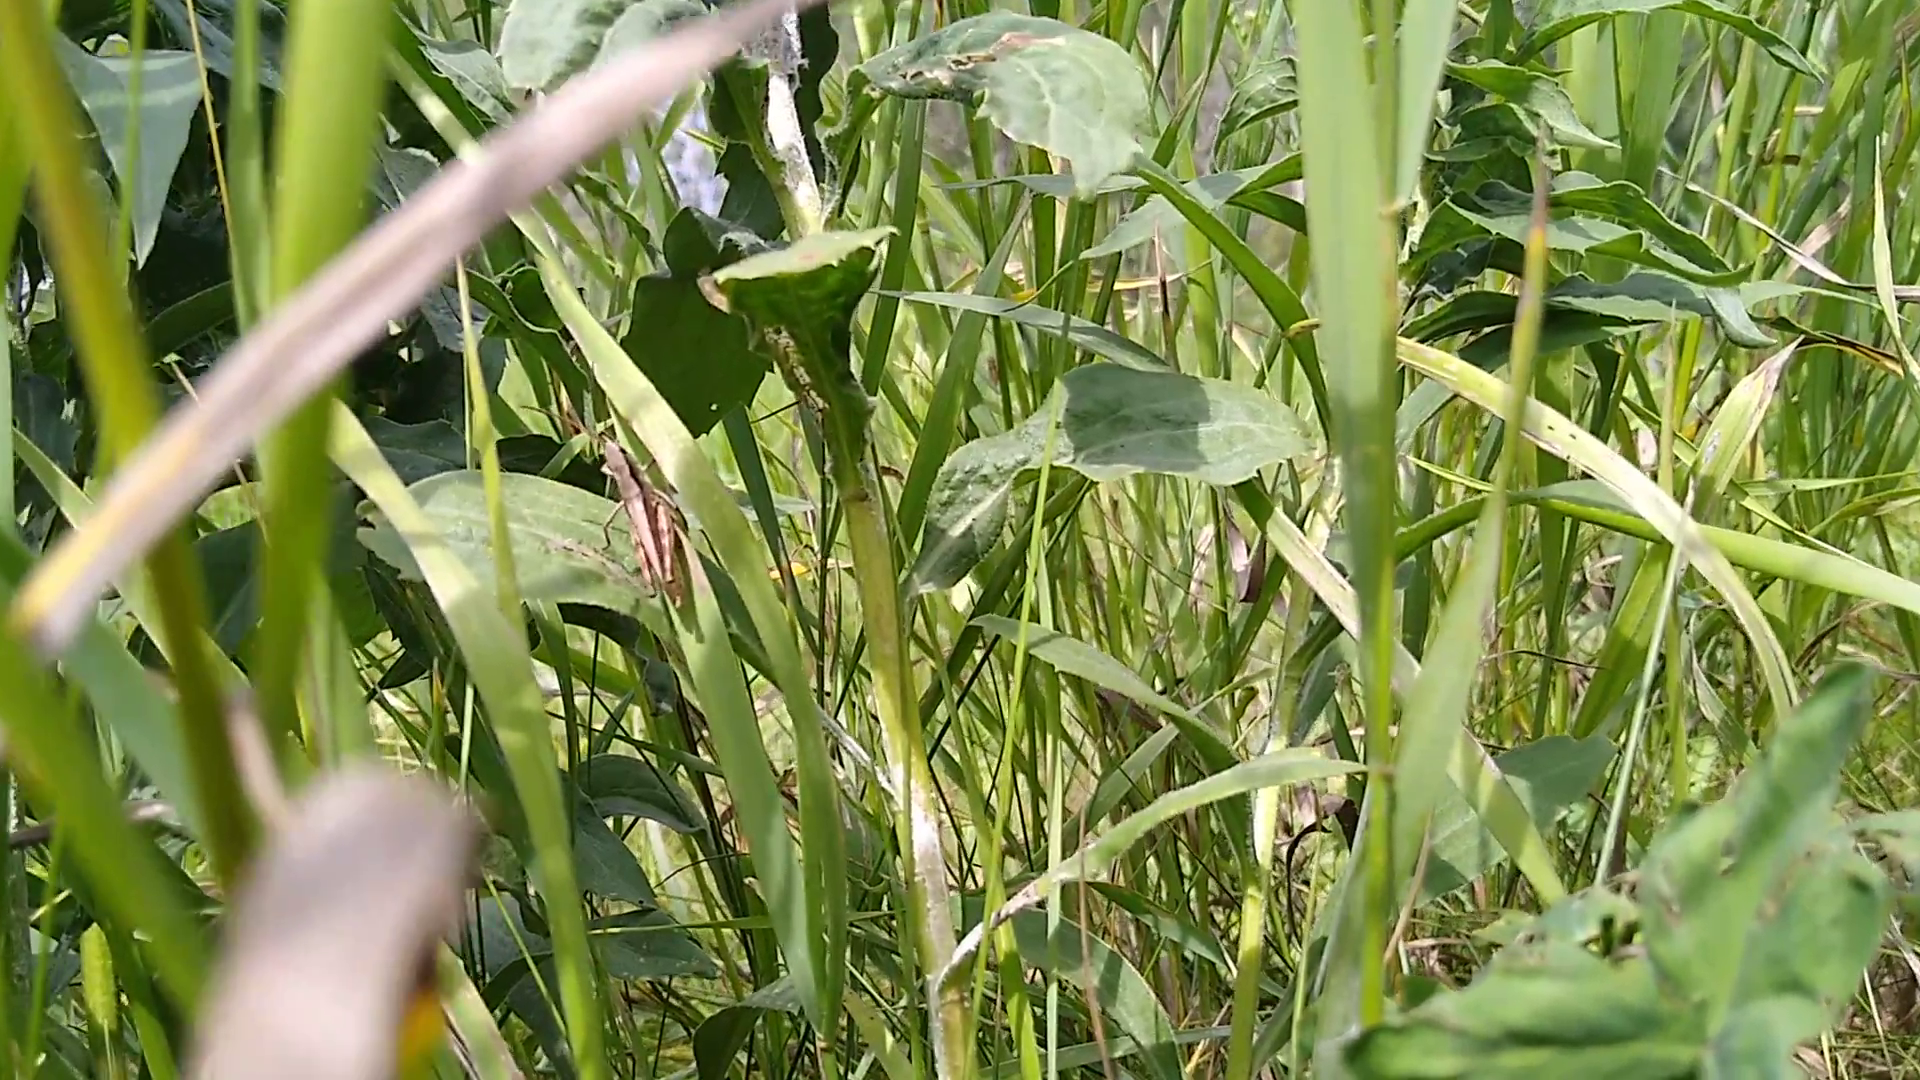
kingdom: Animalia
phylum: Arthropoda
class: Insecta
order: Orthoptera
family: Acrididae
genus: Chloealtis
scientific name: Chloealtis abdominalis
